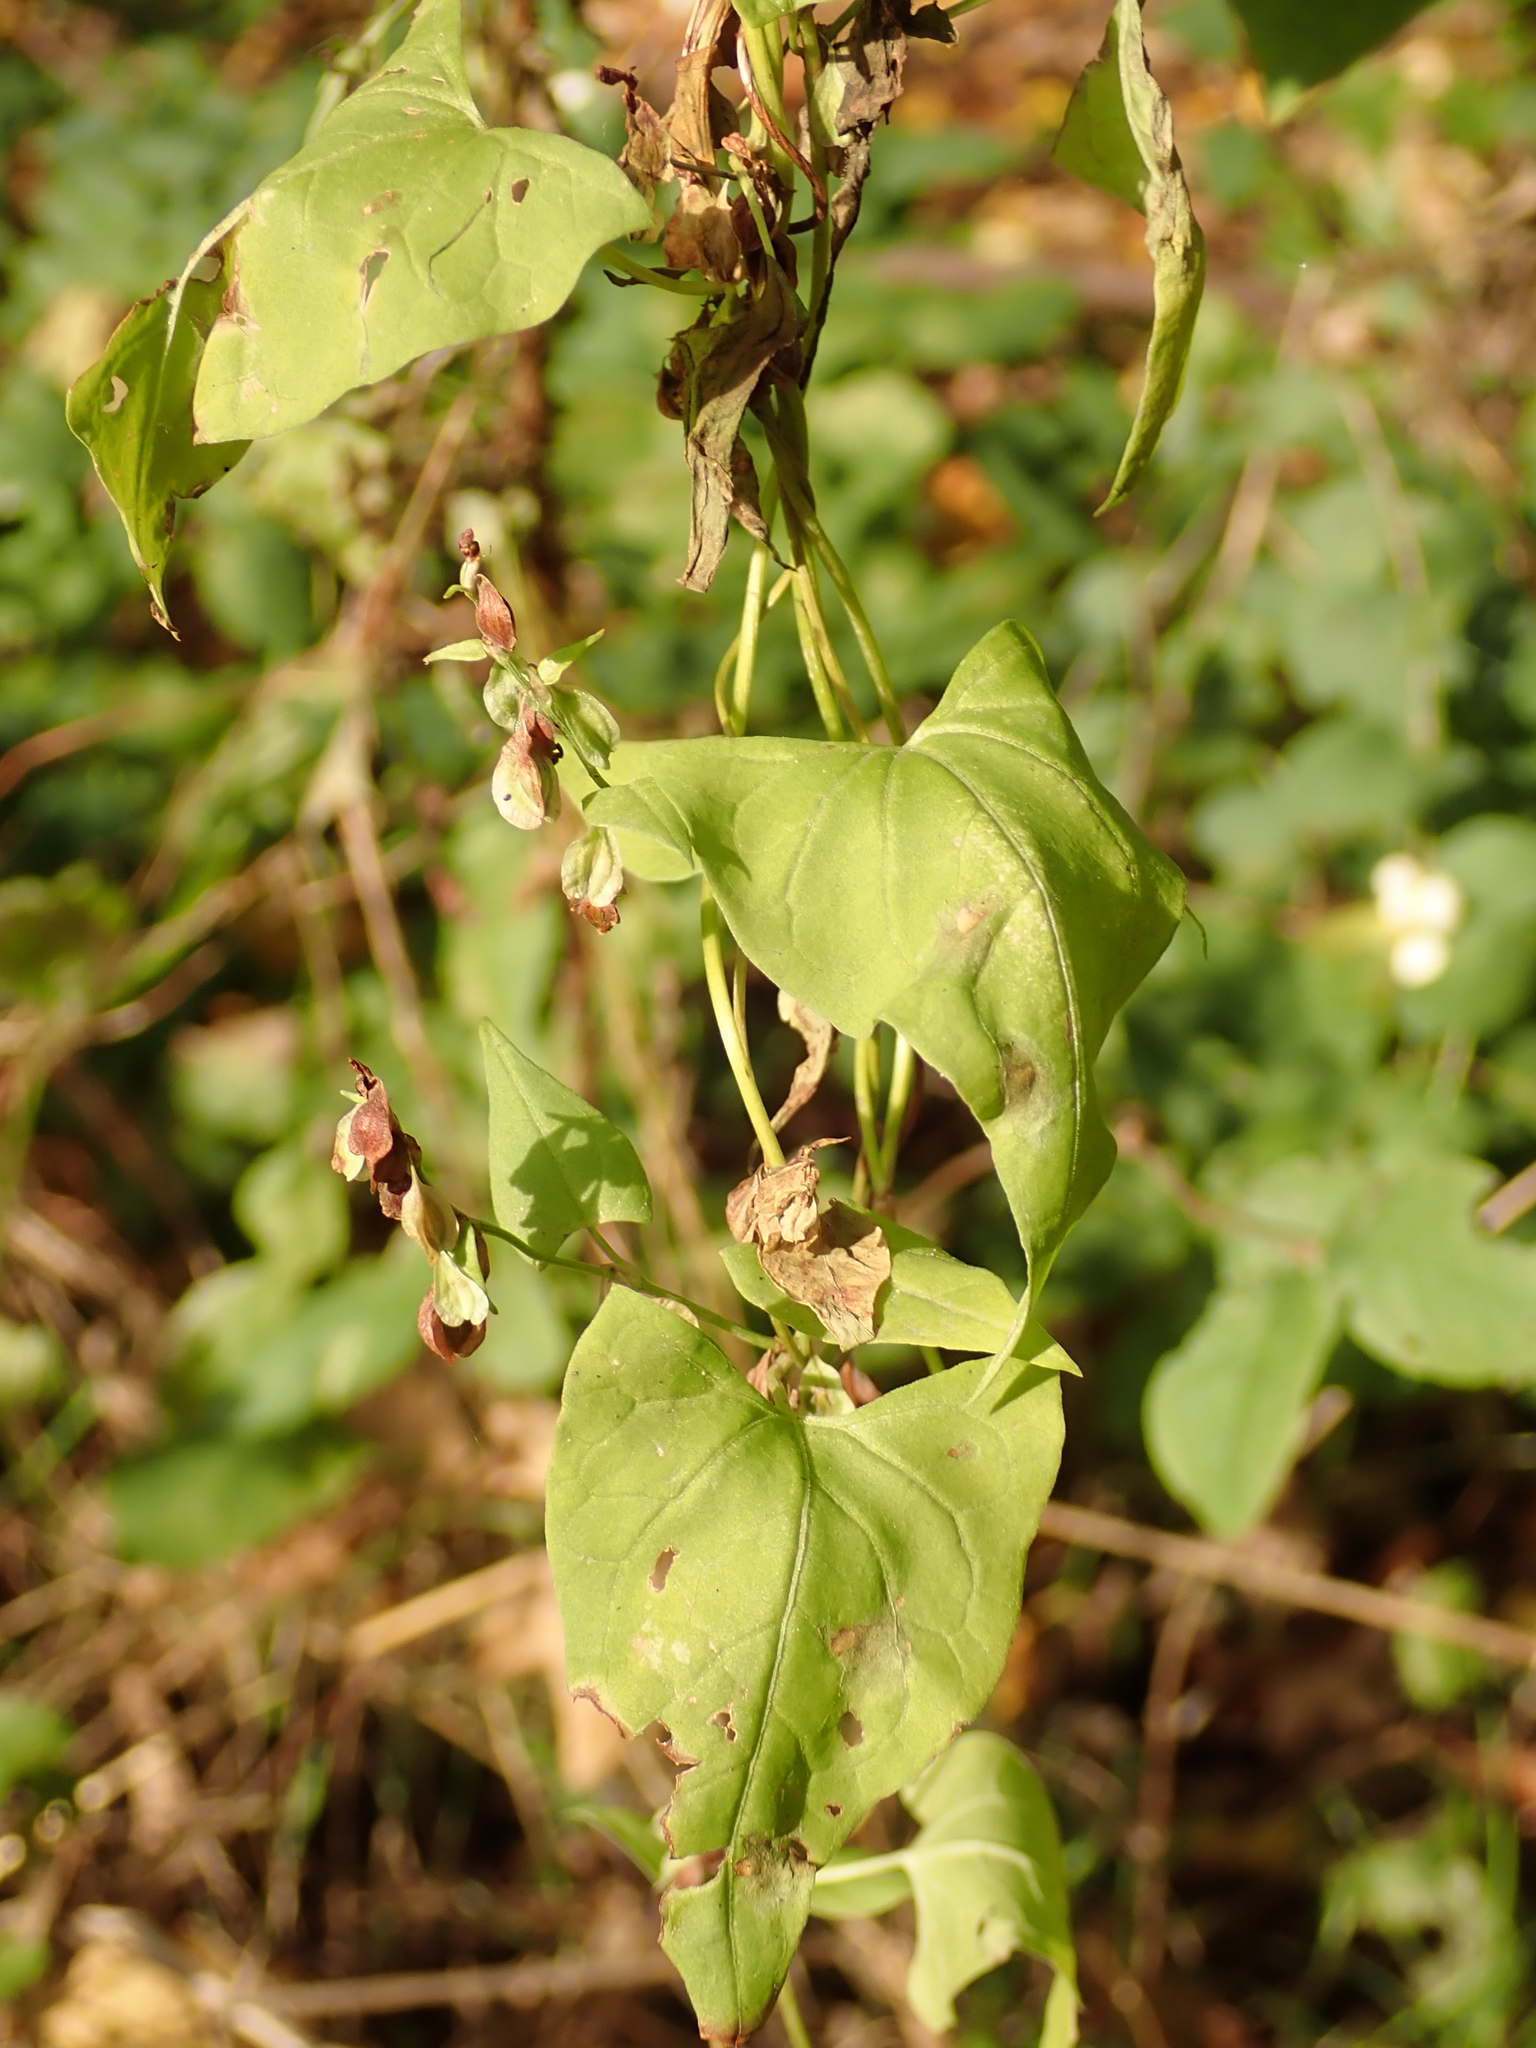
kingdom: Plantae
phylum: Tracheophyta
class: Magnoliopsida
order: Caryophyllales
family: Polygonaceae
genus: Fallopia
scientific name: Fallopia dumetorum
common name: Copse-bindweed
